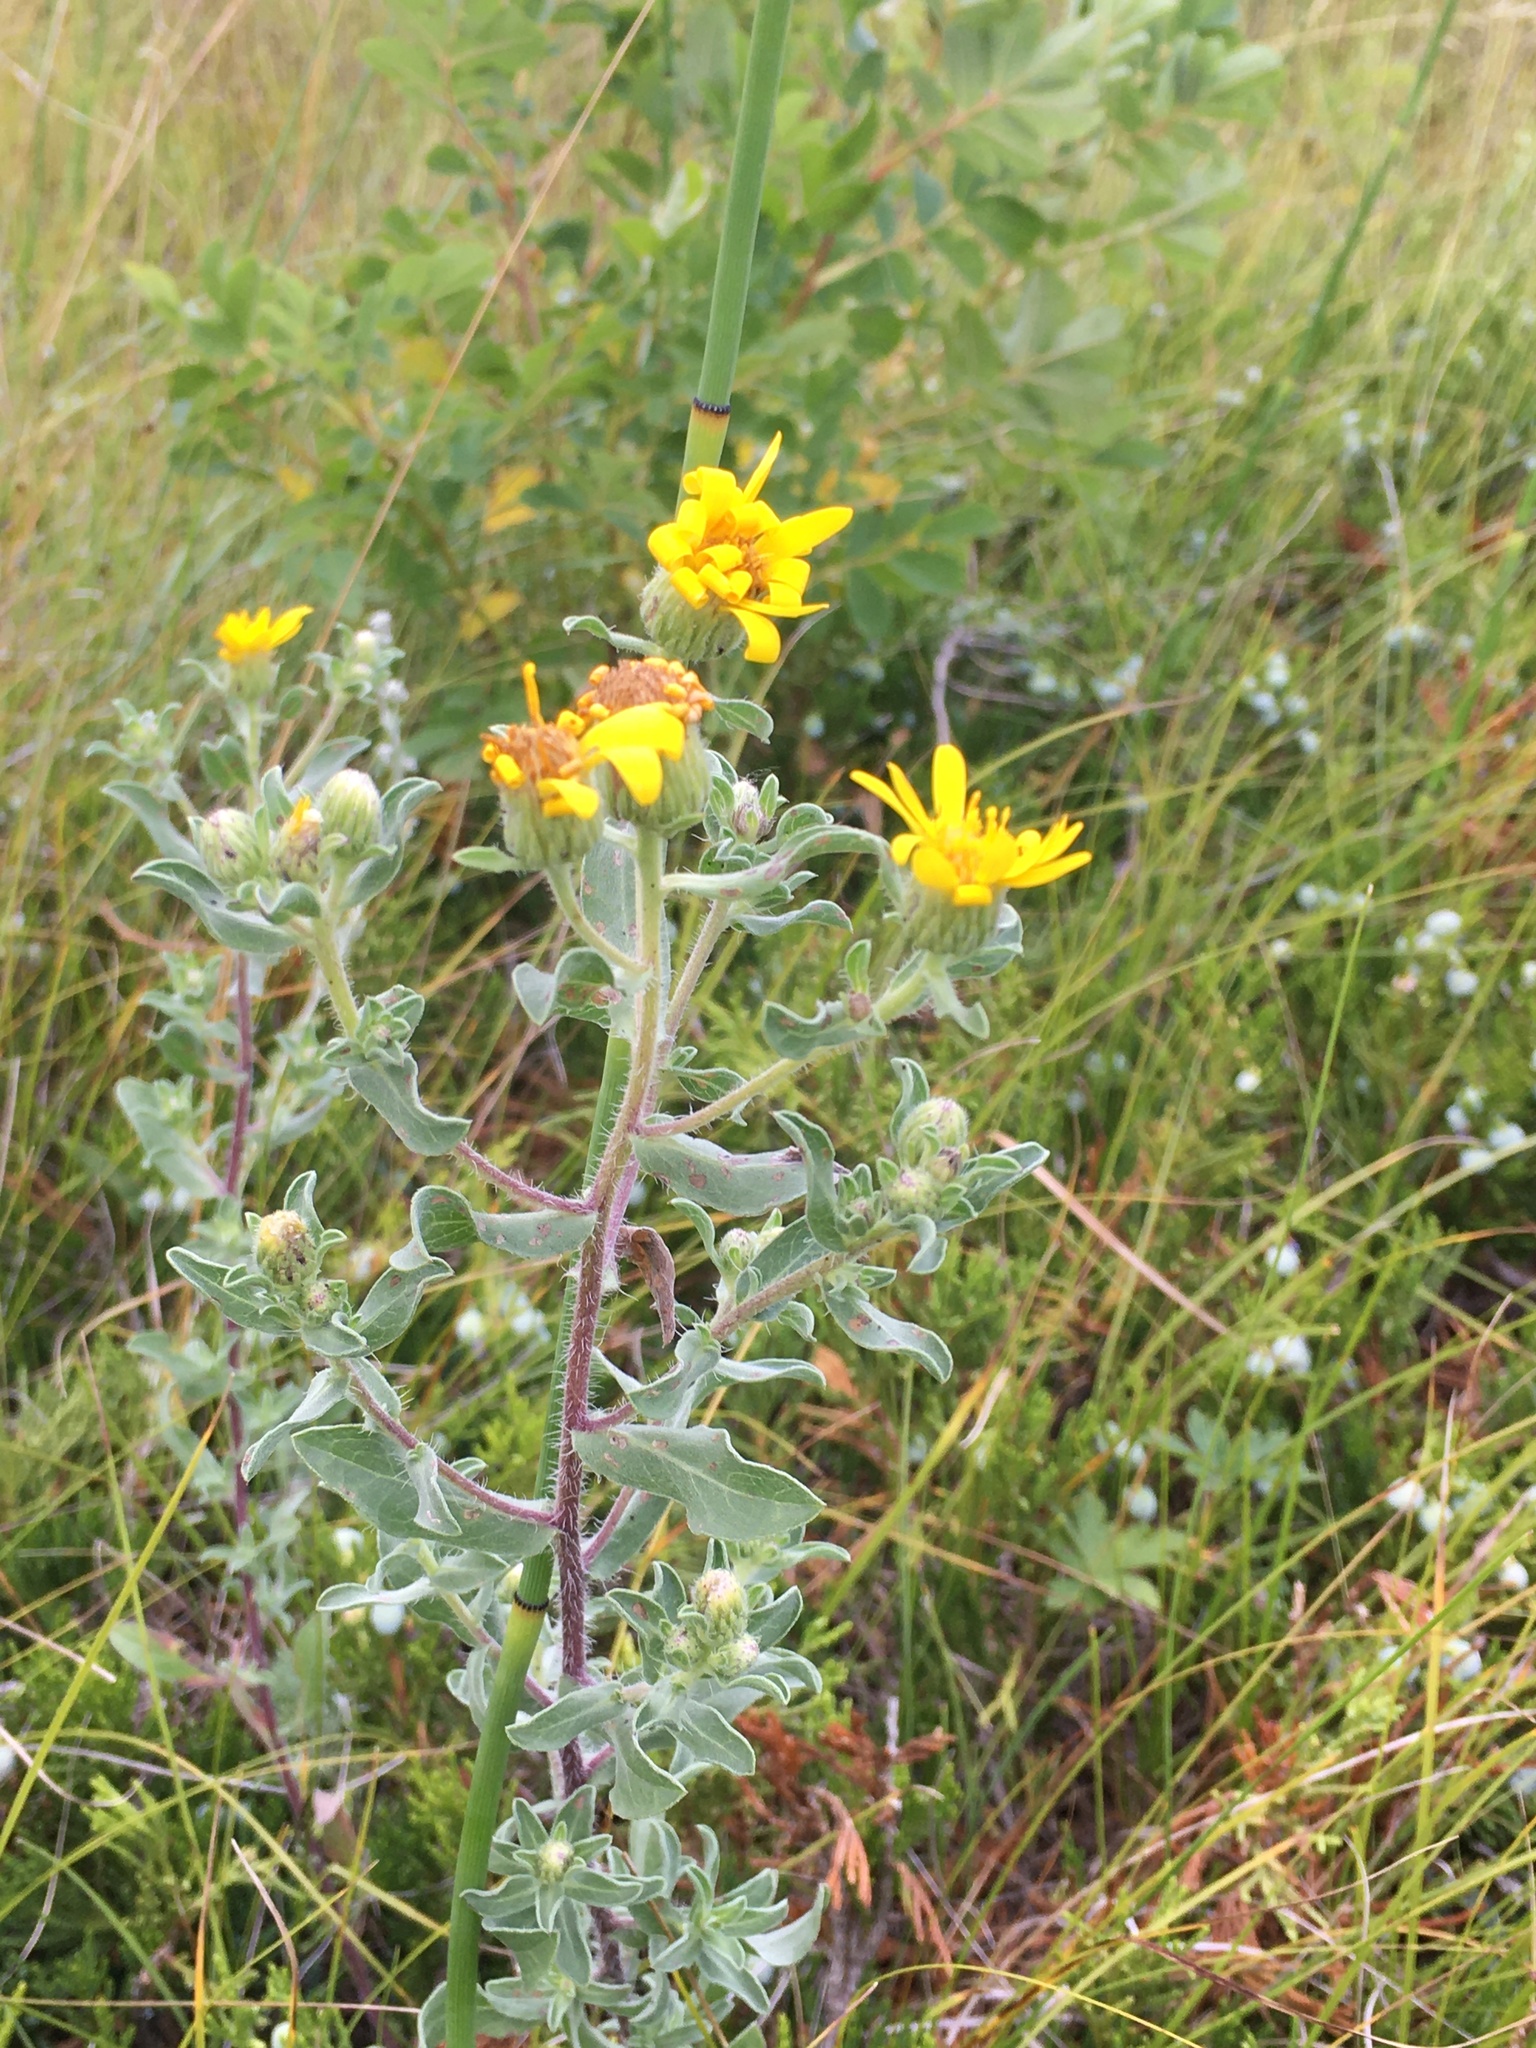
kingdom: Plantae
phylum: Tracheophyta
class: Magnoliopsida
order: Asterales
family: Asteraceae
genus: Heterotheca
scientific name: Heterotheca villosa
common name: Hairy false goldenaster
